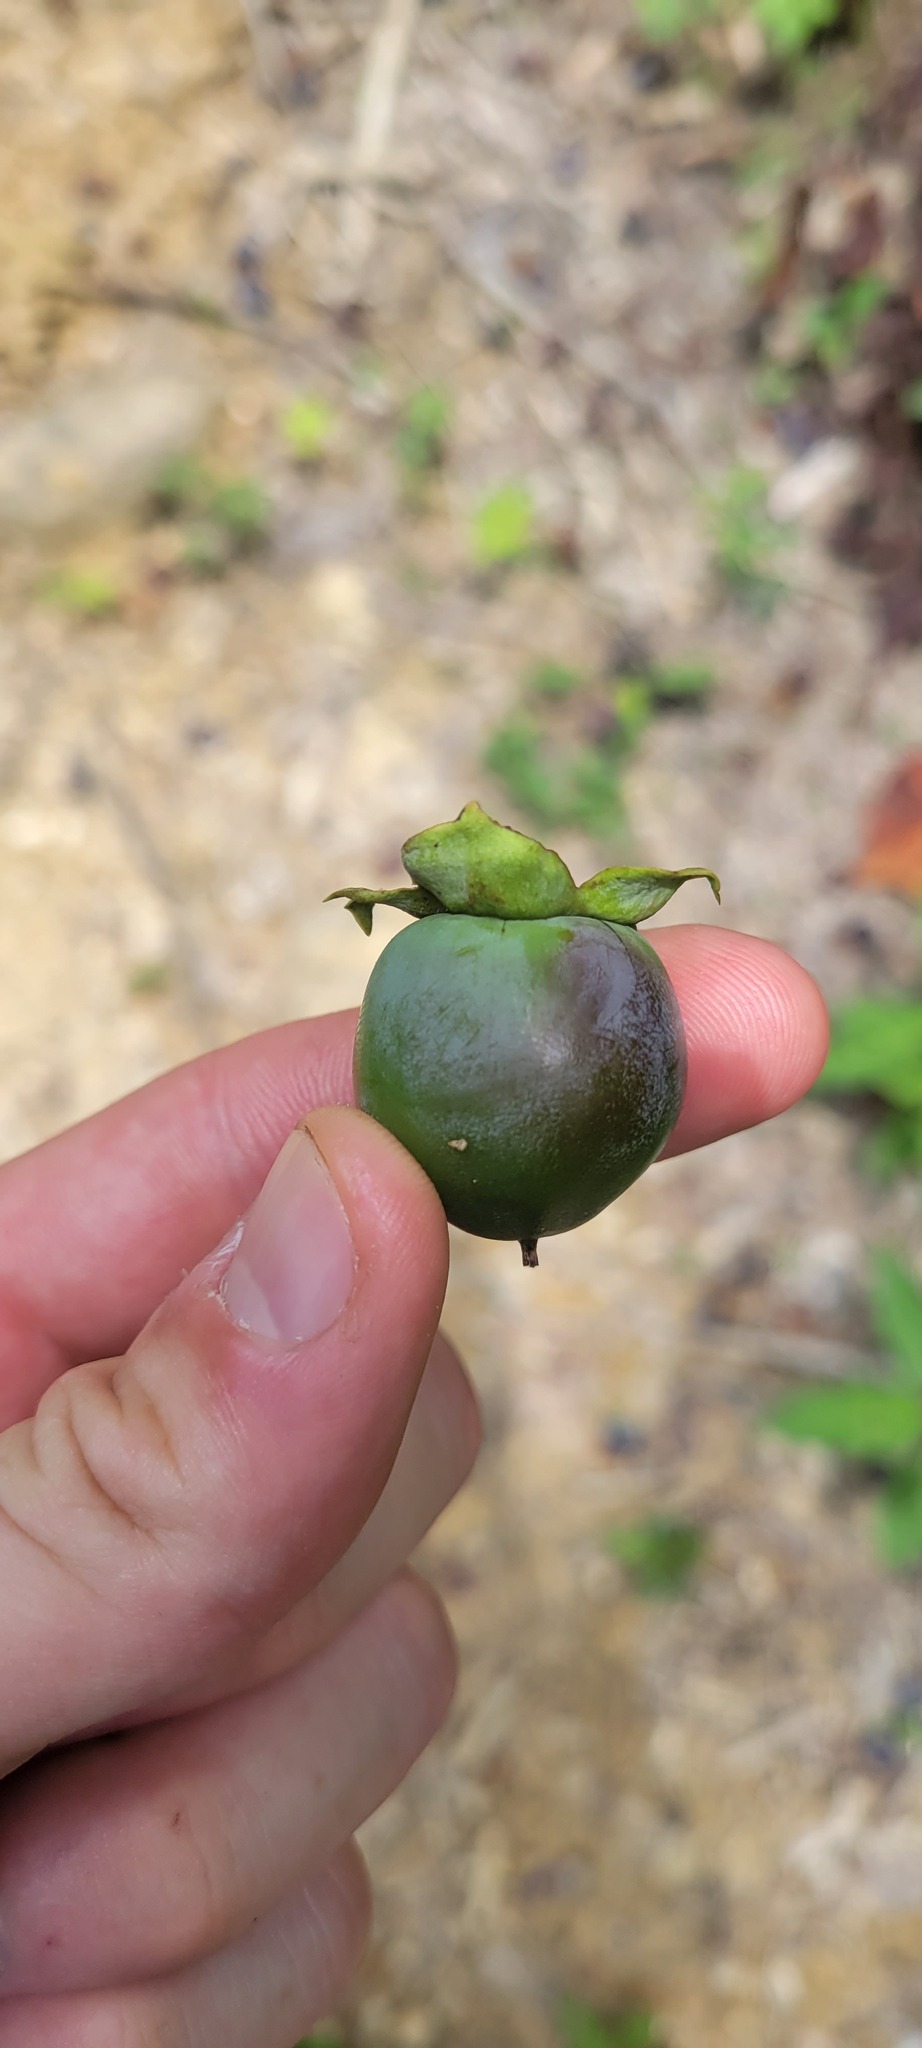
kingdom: Plantae
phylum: Tracheophyta
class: Magnoliopsida
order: Ericales
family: Ebenaceae
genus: Diospyros
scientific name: Diospyros virginiana
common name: Persimmon
